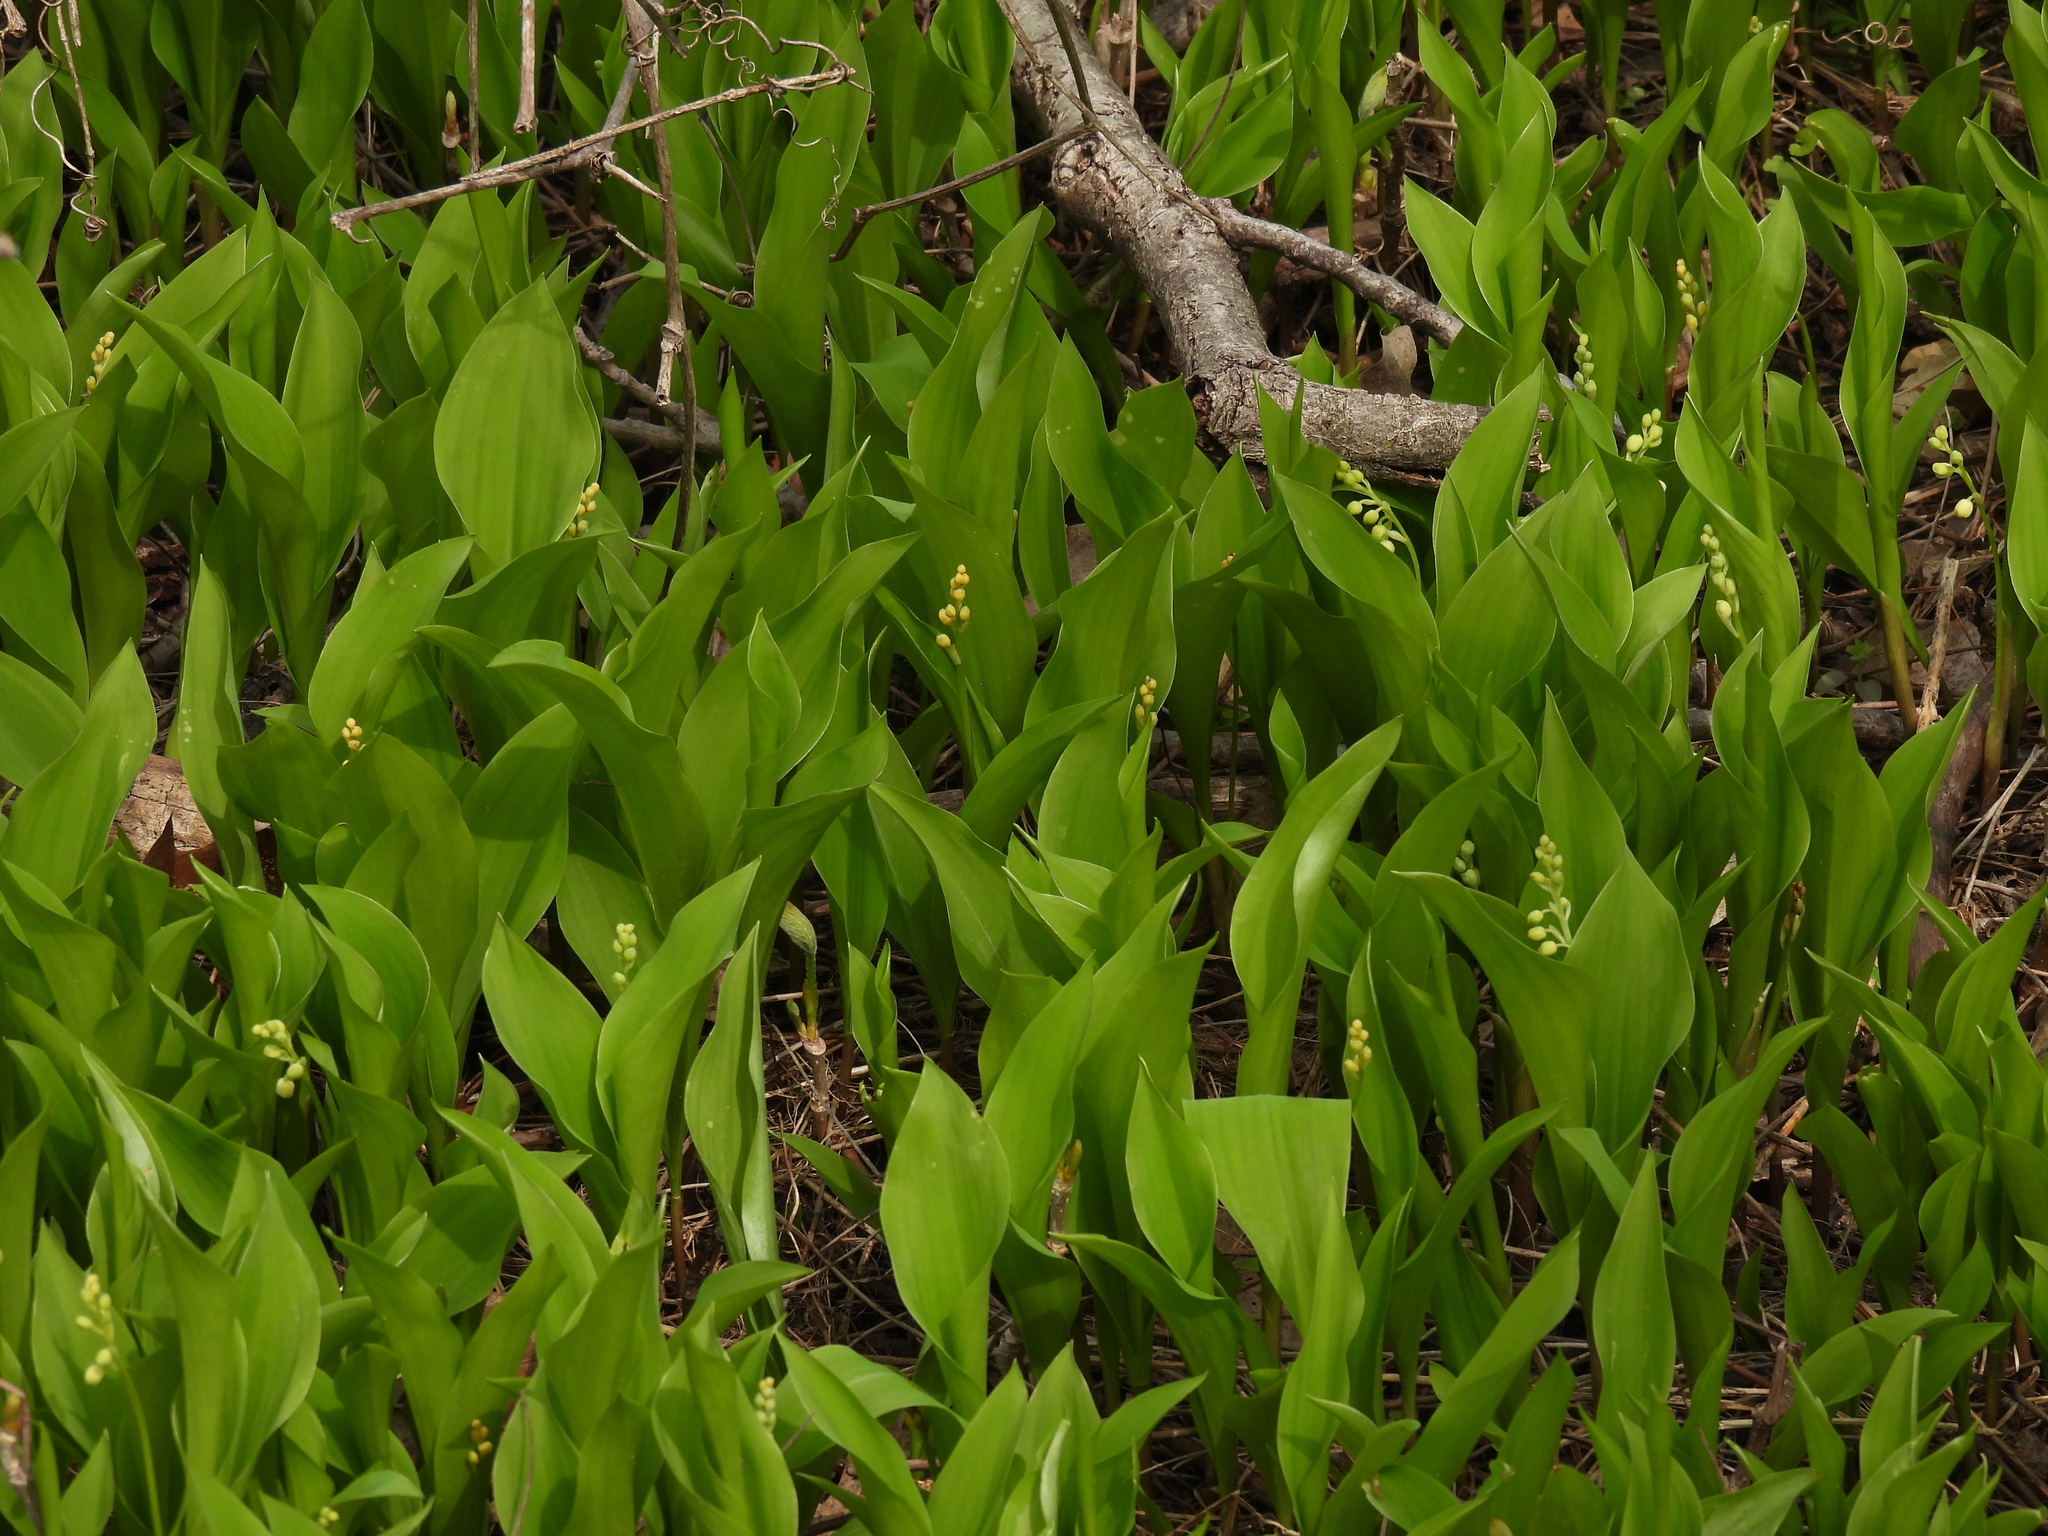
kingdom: Plantae
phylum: Tracheophyta
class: Liliopsida
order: Asparagales
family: Asparagaceae
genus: Convallaria
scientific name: Convallaria majalis
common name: Lily-of-the-valley
